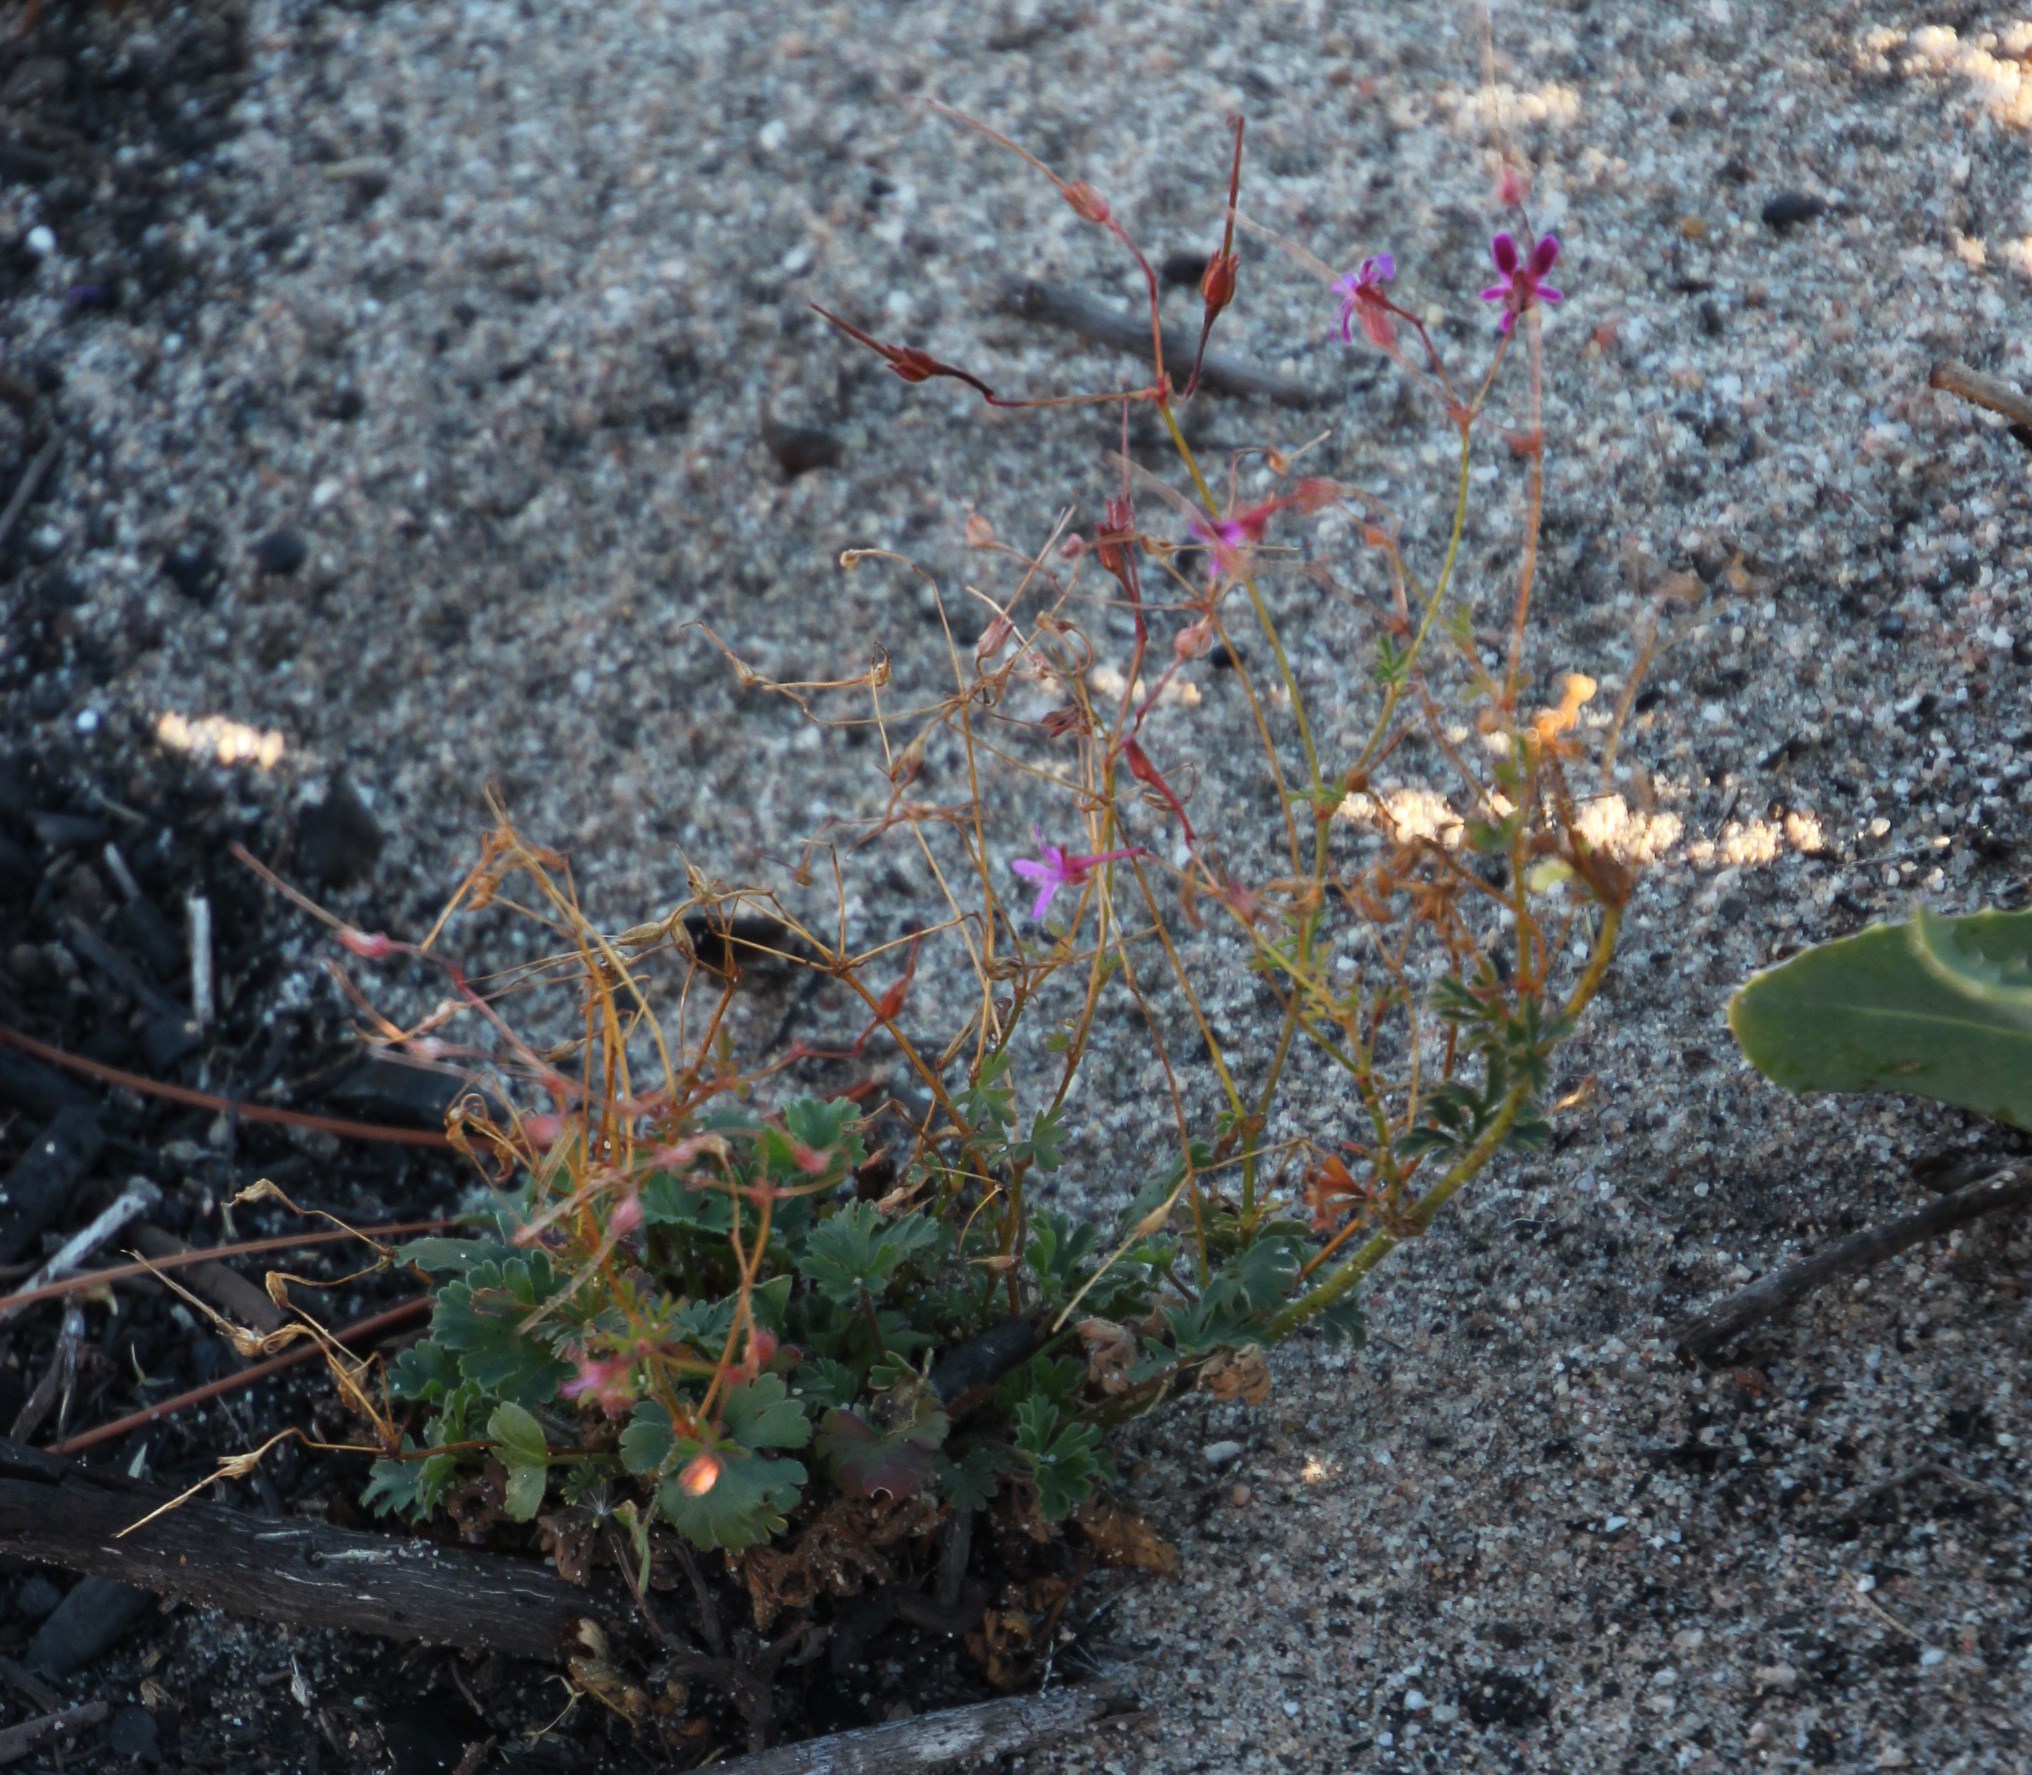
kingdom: Plantae
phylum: Tracheophyta
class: Magnoliopsida
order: Geraniales
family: Geraniaceae
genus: Pelargonium
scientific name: Pelargonium columbinum
